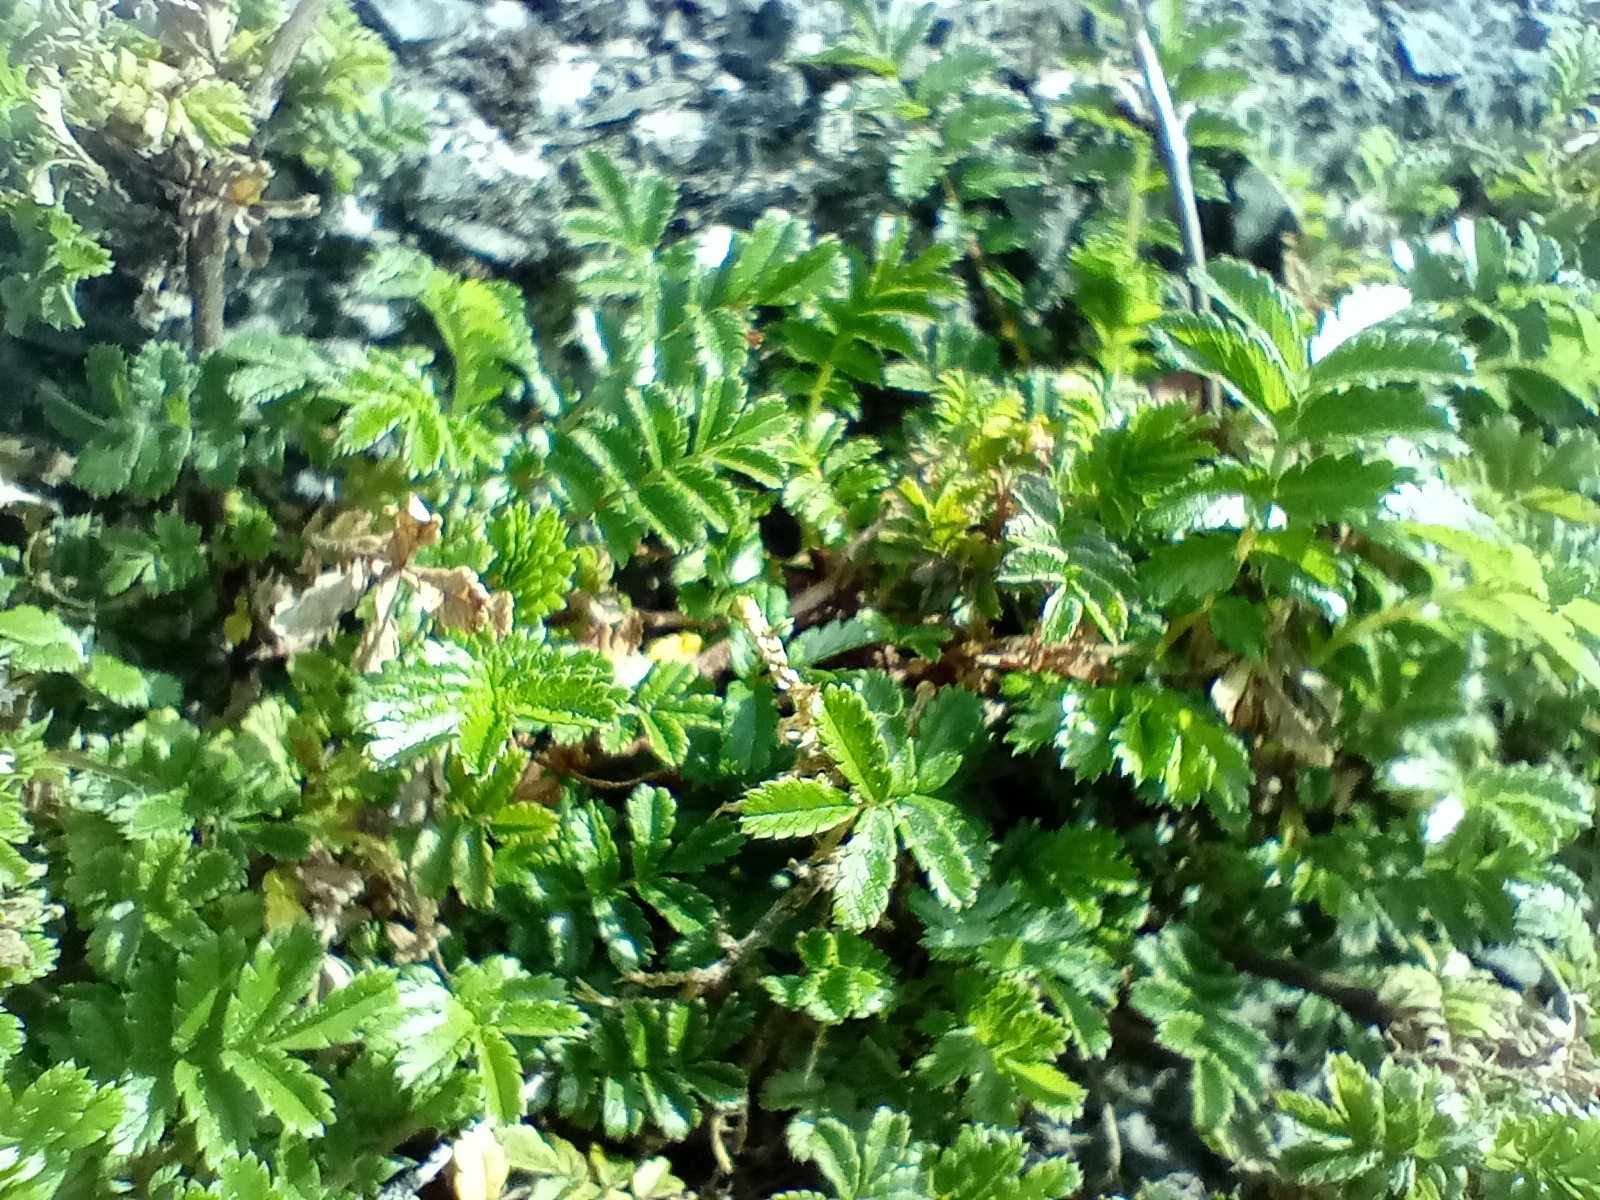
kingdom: Plantae
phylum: Tracheophyta
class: Magnoliopsida
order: Rosales
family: Rosaceae
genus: Acaena
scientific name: Acaena novae-zelandiae
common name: Pirri-pirri-bur
